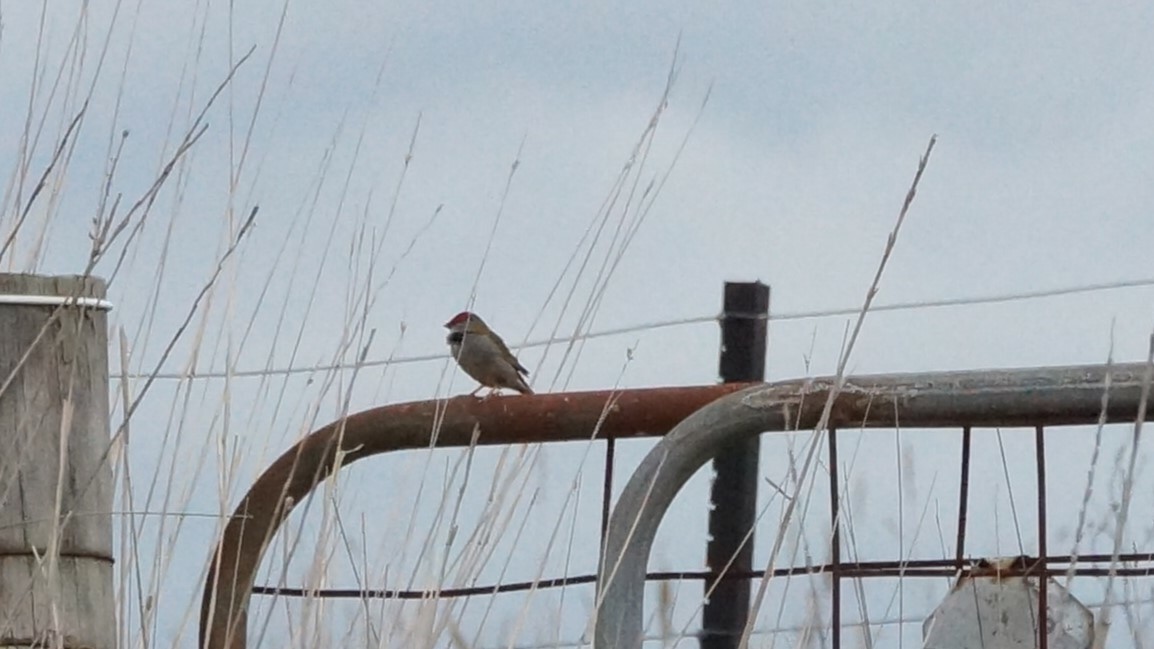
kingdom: Animalia
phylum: Chordata
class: Aves
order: Passeriformes
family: Estrildidae
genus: Neochmia
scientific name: Neochmia temporalis
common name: Red-browed finch
